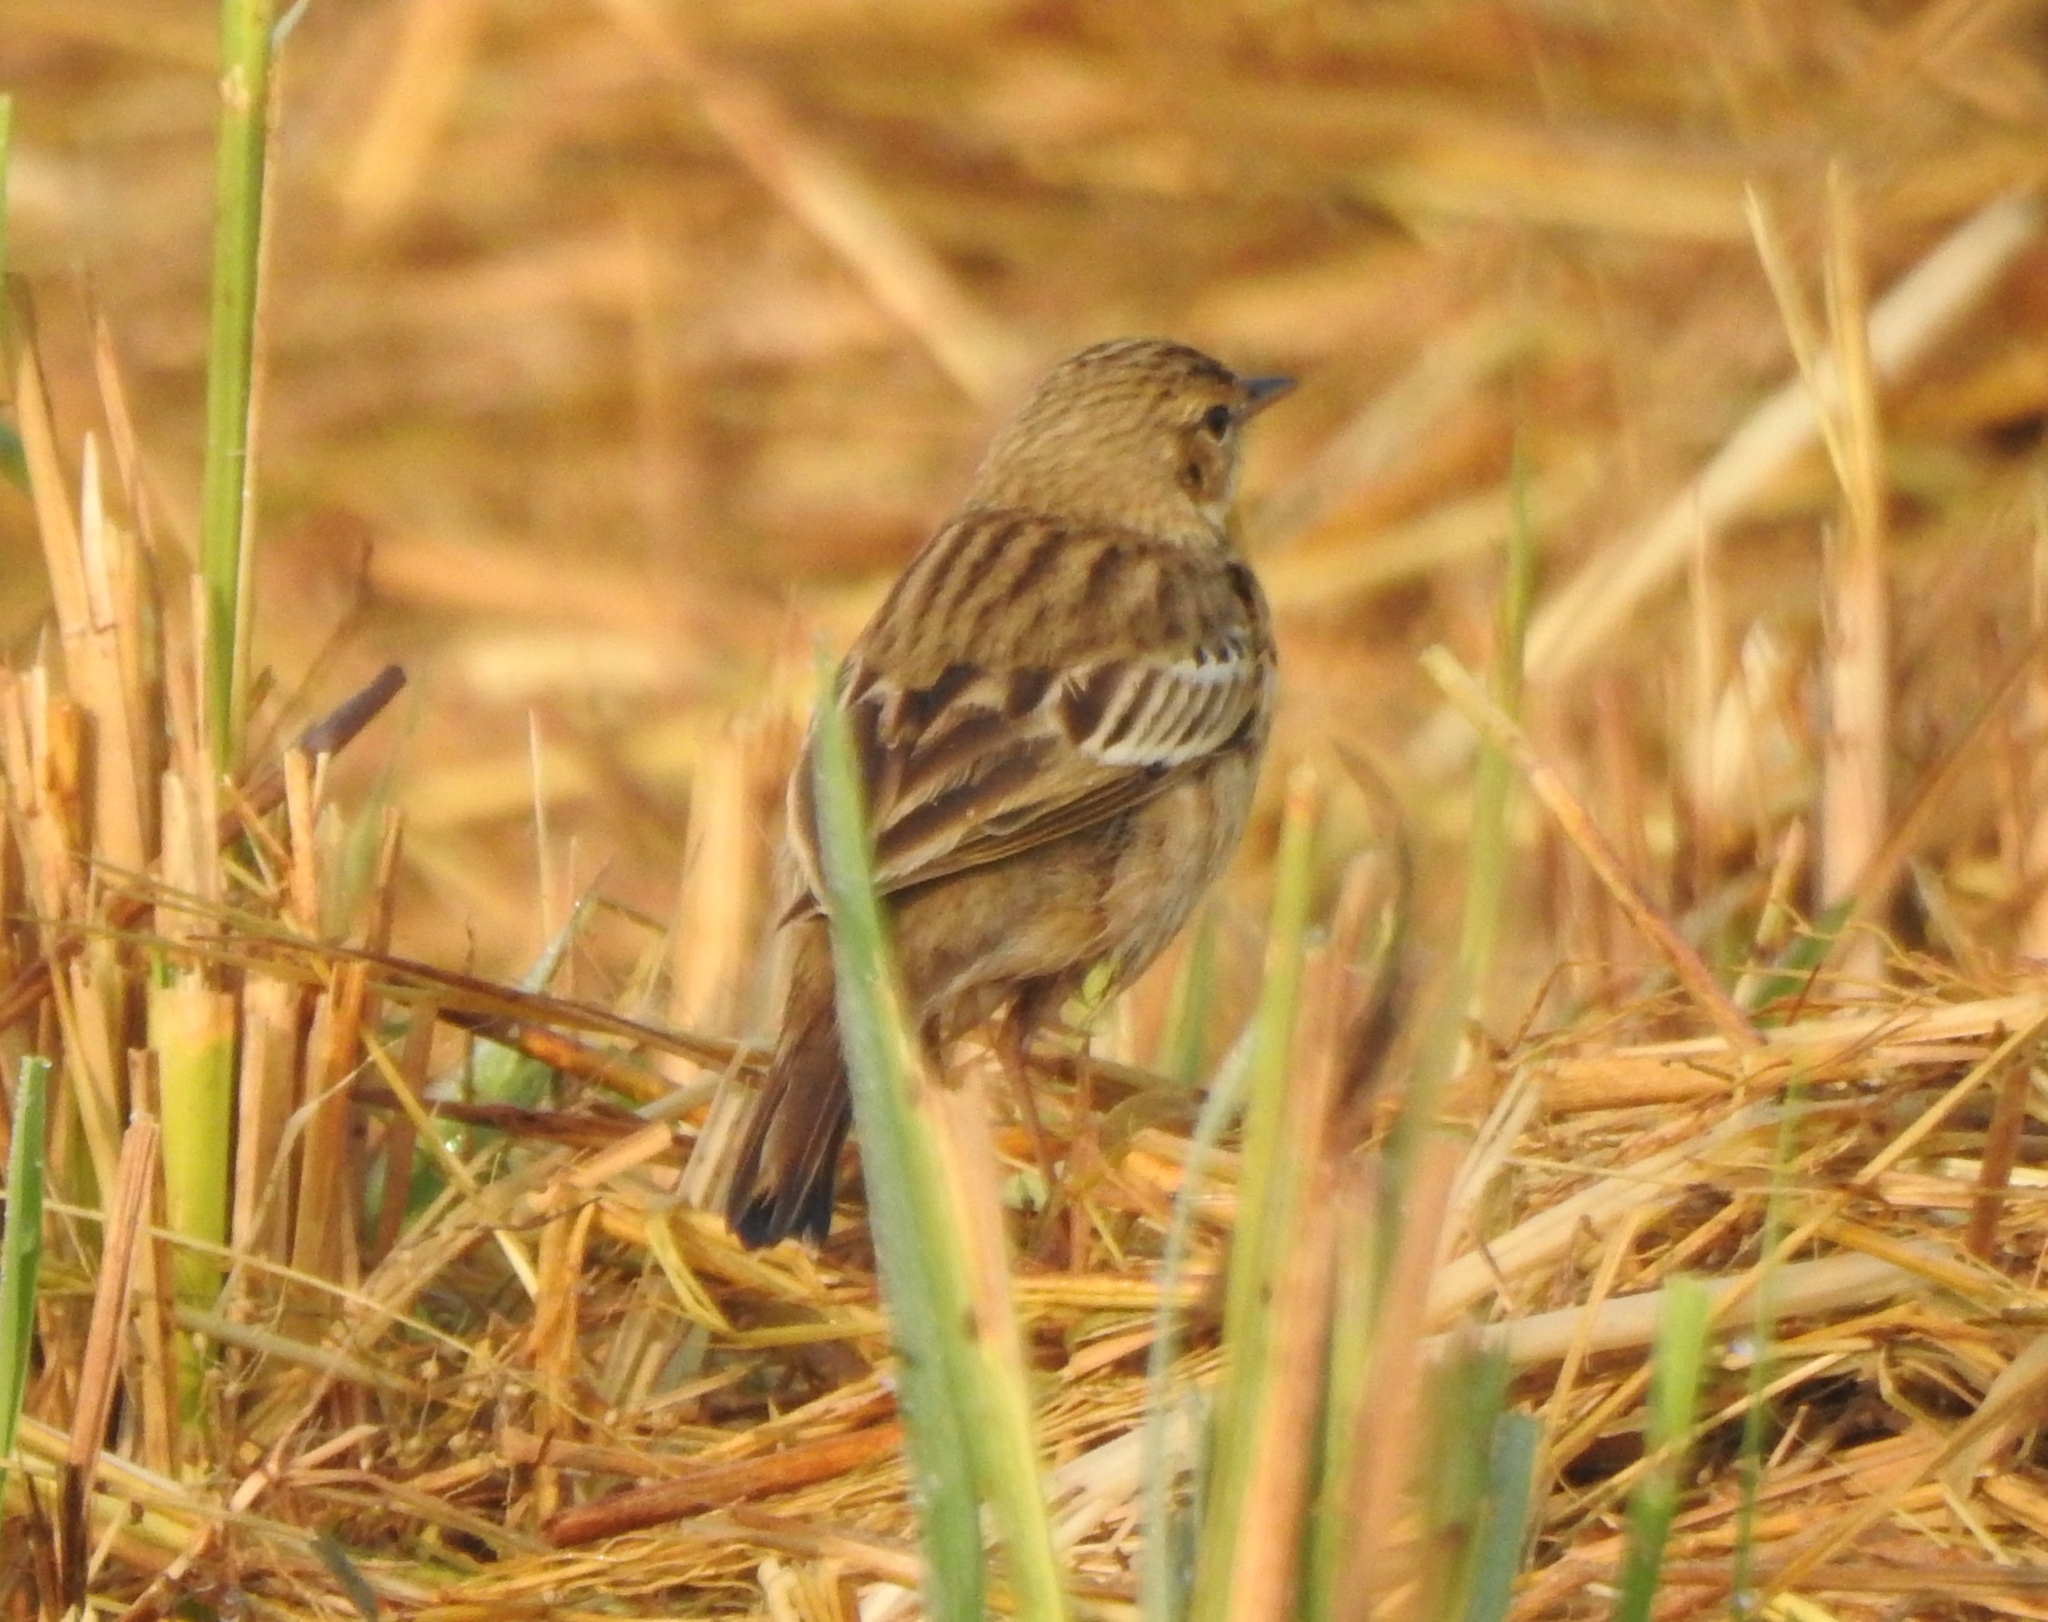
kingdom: Animalia
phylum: Chordata
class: Aves
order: Passeriformes
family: Motacillidae
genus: Anthus
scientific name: Anthus trivialis
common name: Tree pipit
